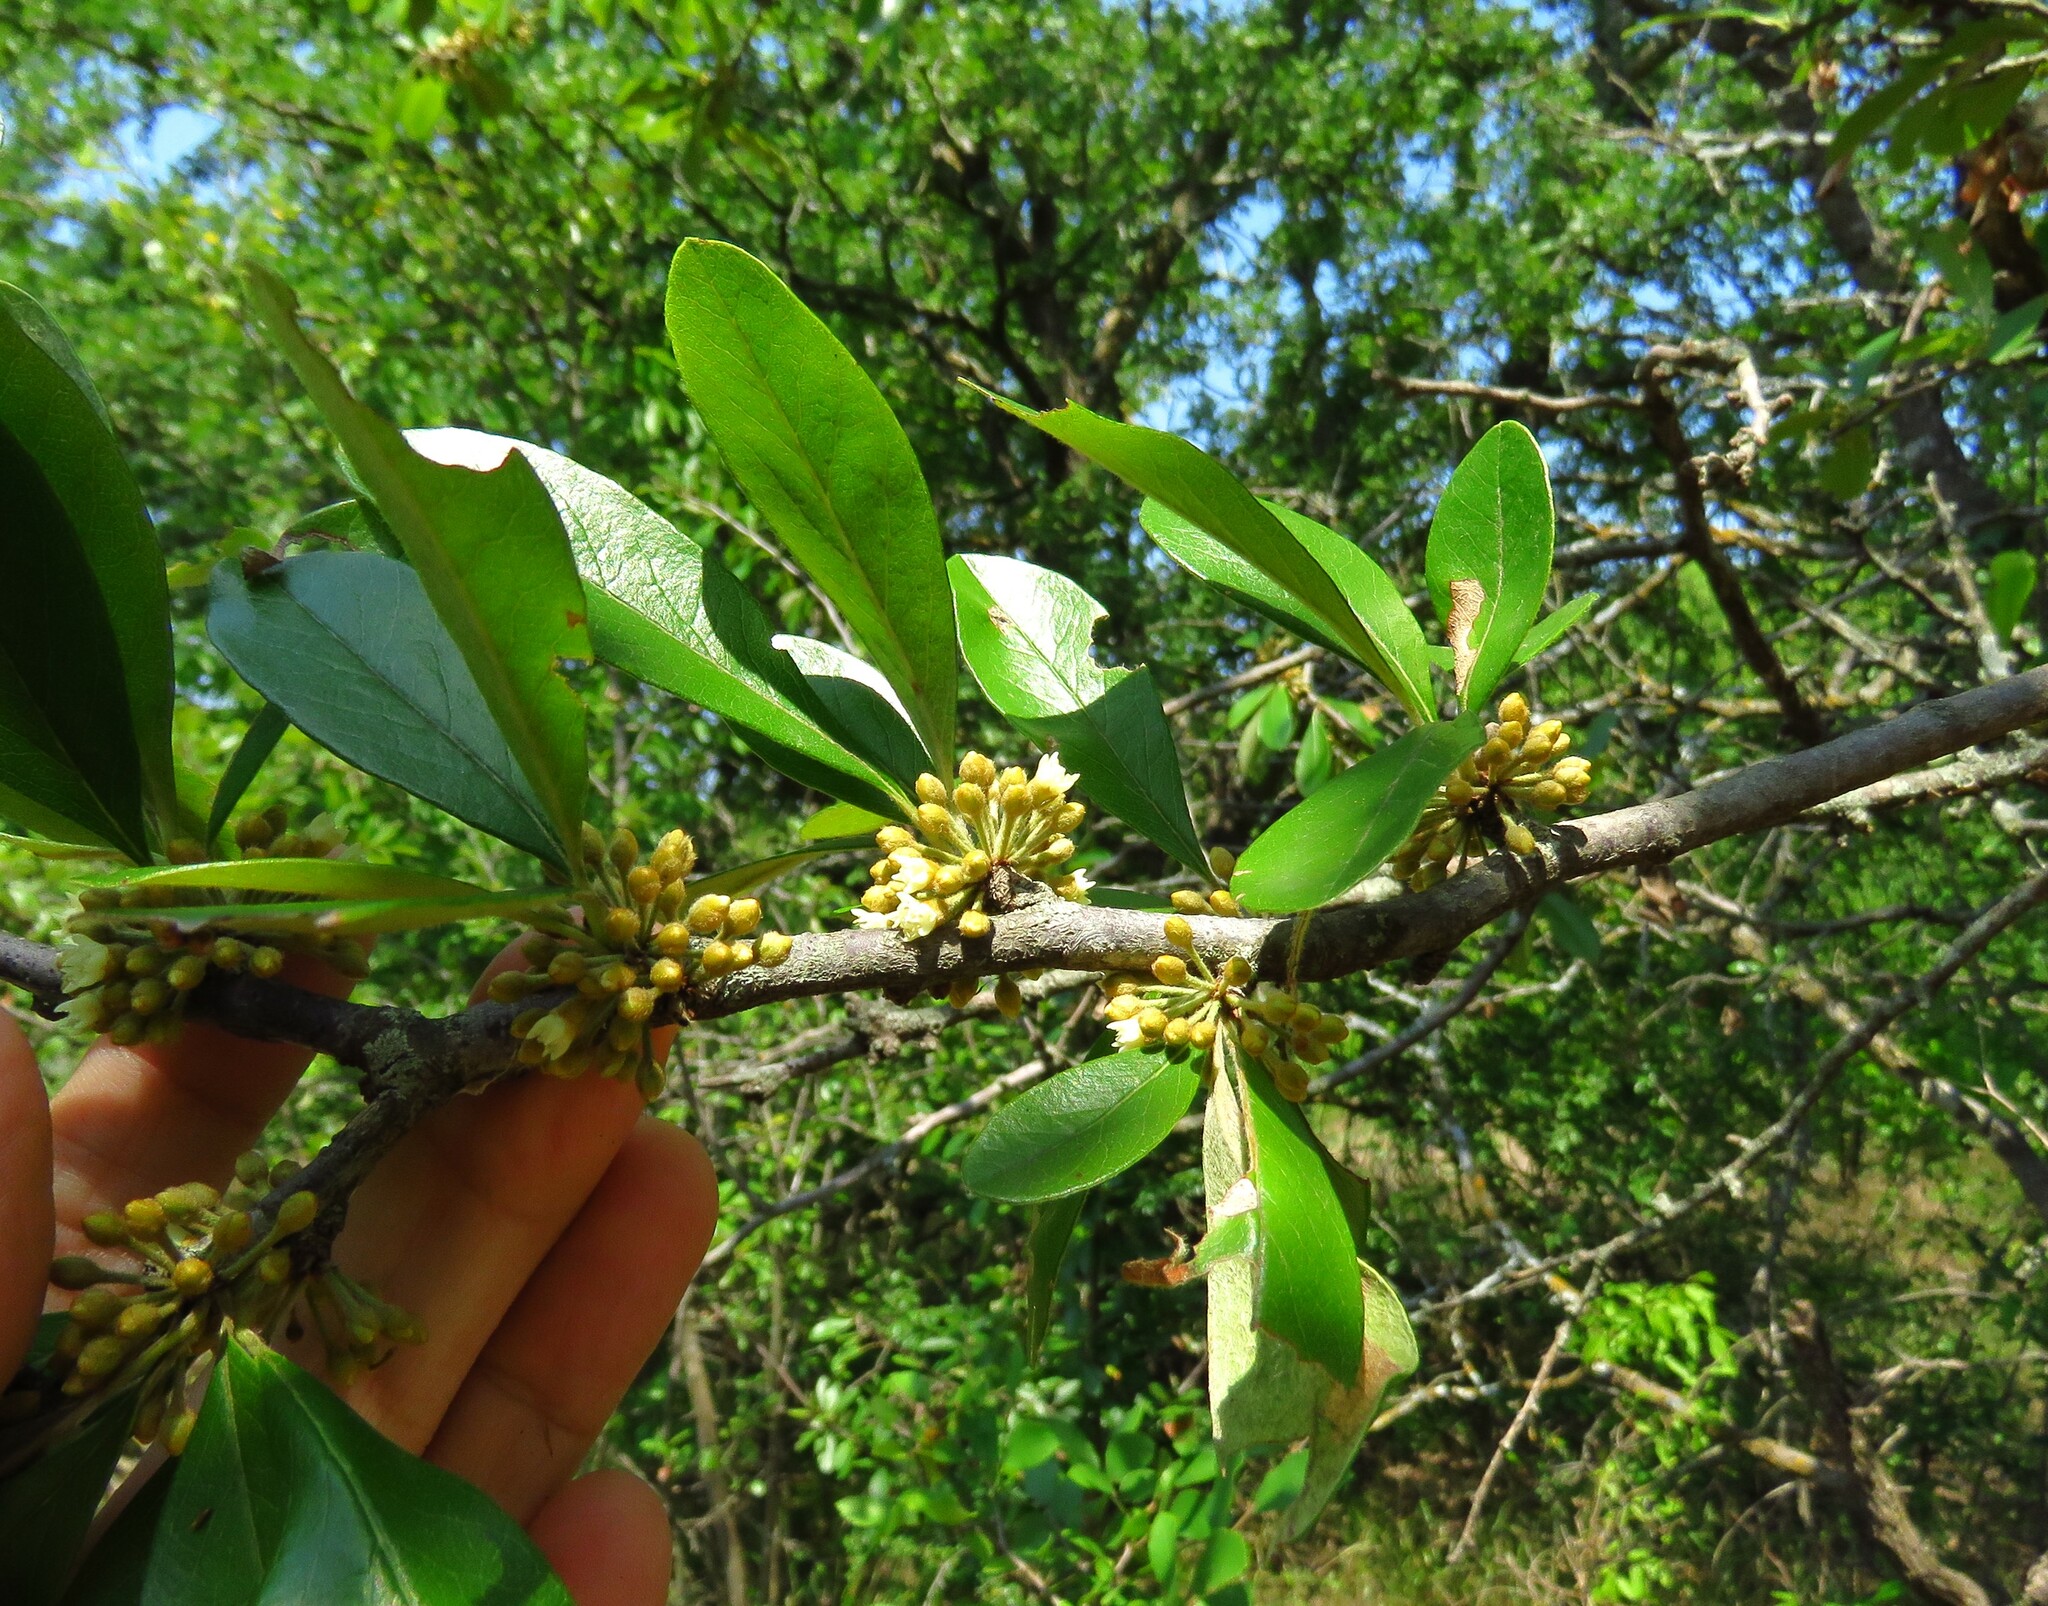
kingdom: Plantae
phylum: Tracheophyta
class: Magnoliopsida
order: Ericales
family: Sapotaceae
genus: Sideroxylon
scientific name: Sideroxylon lanuginosum
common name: Chittamwood
